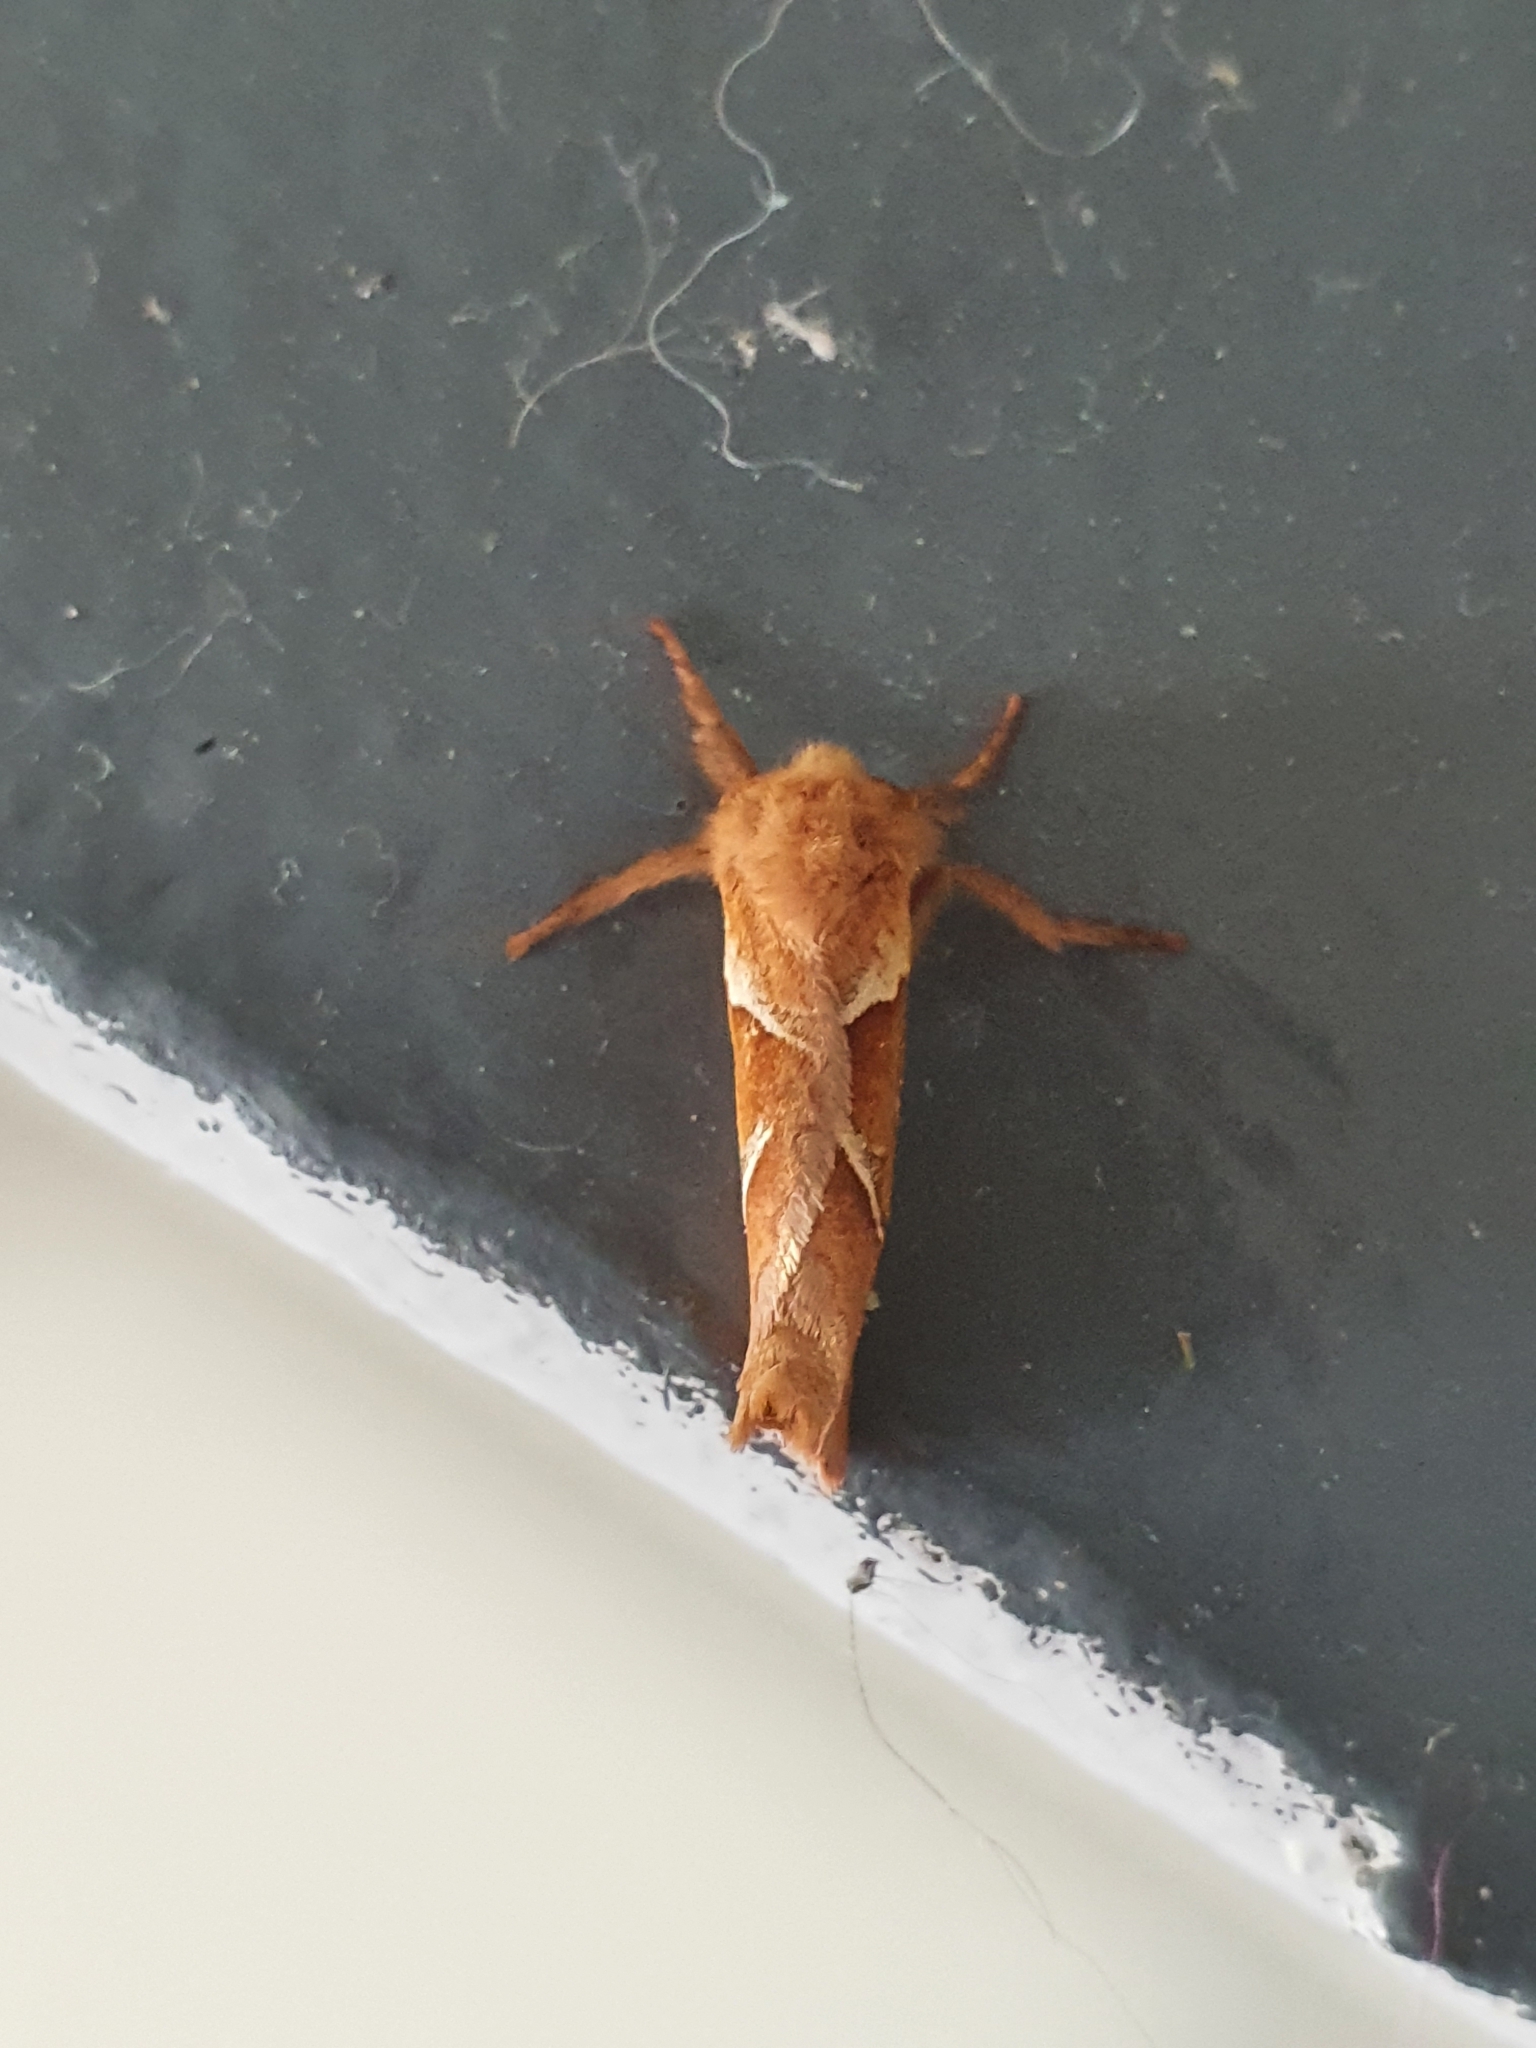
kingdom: Animalia
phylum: Arthropoda
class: Insecta
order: Lepidoptera
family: Hepialidae
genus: Triodia
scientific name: Triodia sylvina
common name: Orange swift
